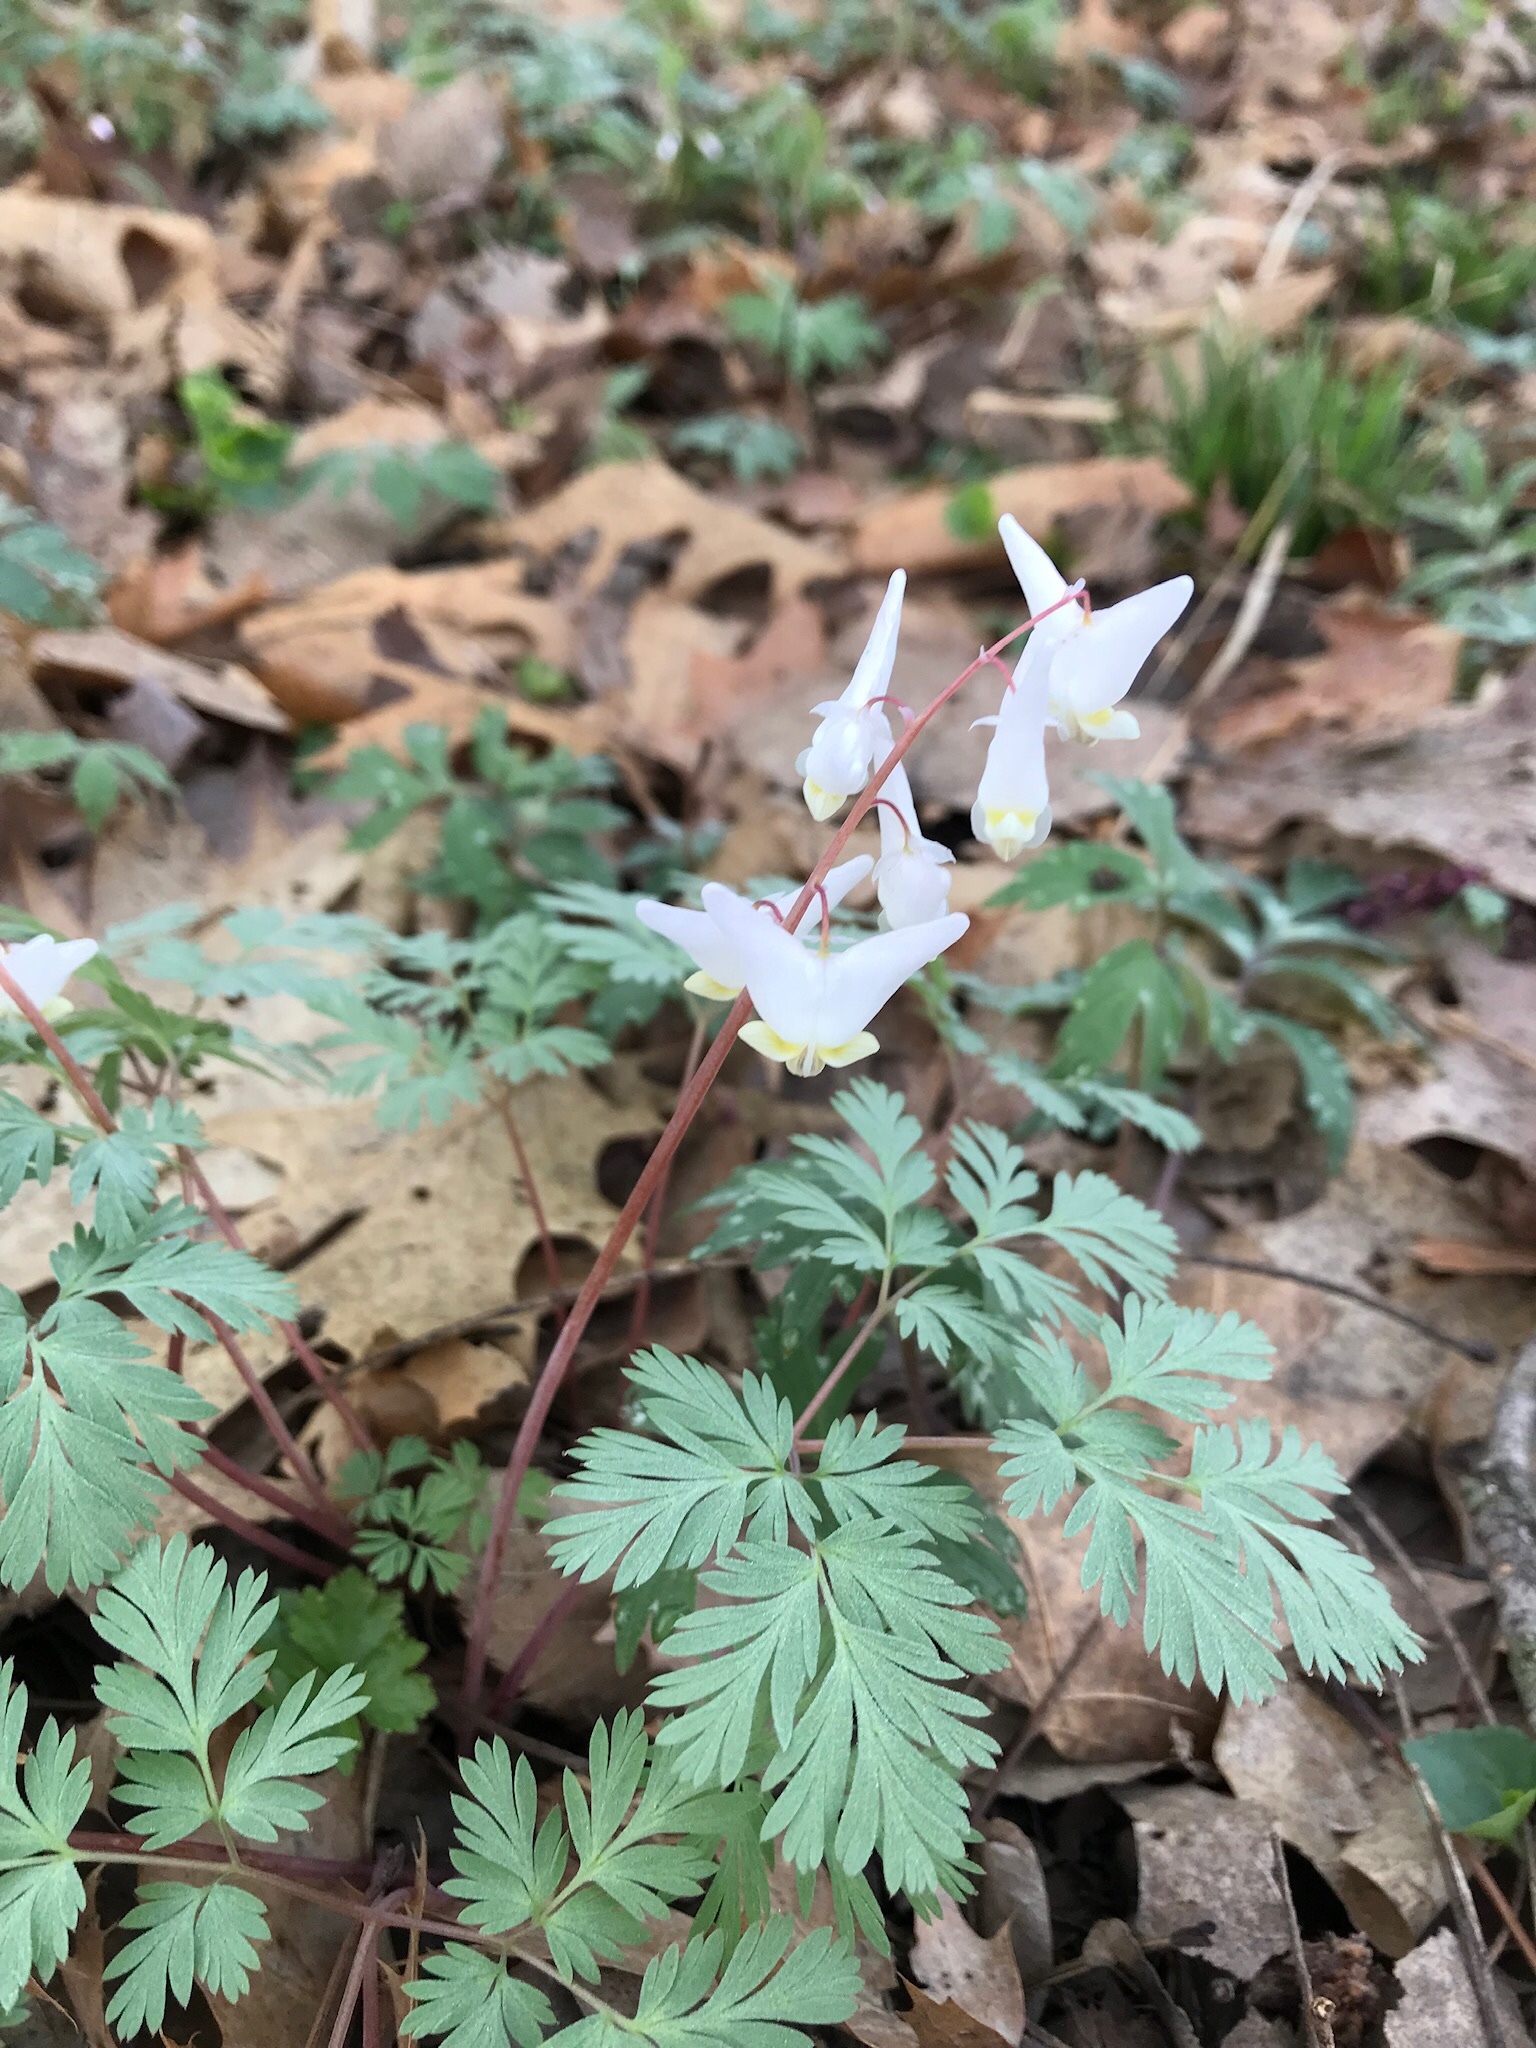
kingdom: Plantae
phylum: Tracheophyta
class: Magnoliopsida
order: Ranunculales
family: Papaveraceae
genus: Dicentra
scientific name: Dicentra cucullaria
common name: Dutchman's breeches
